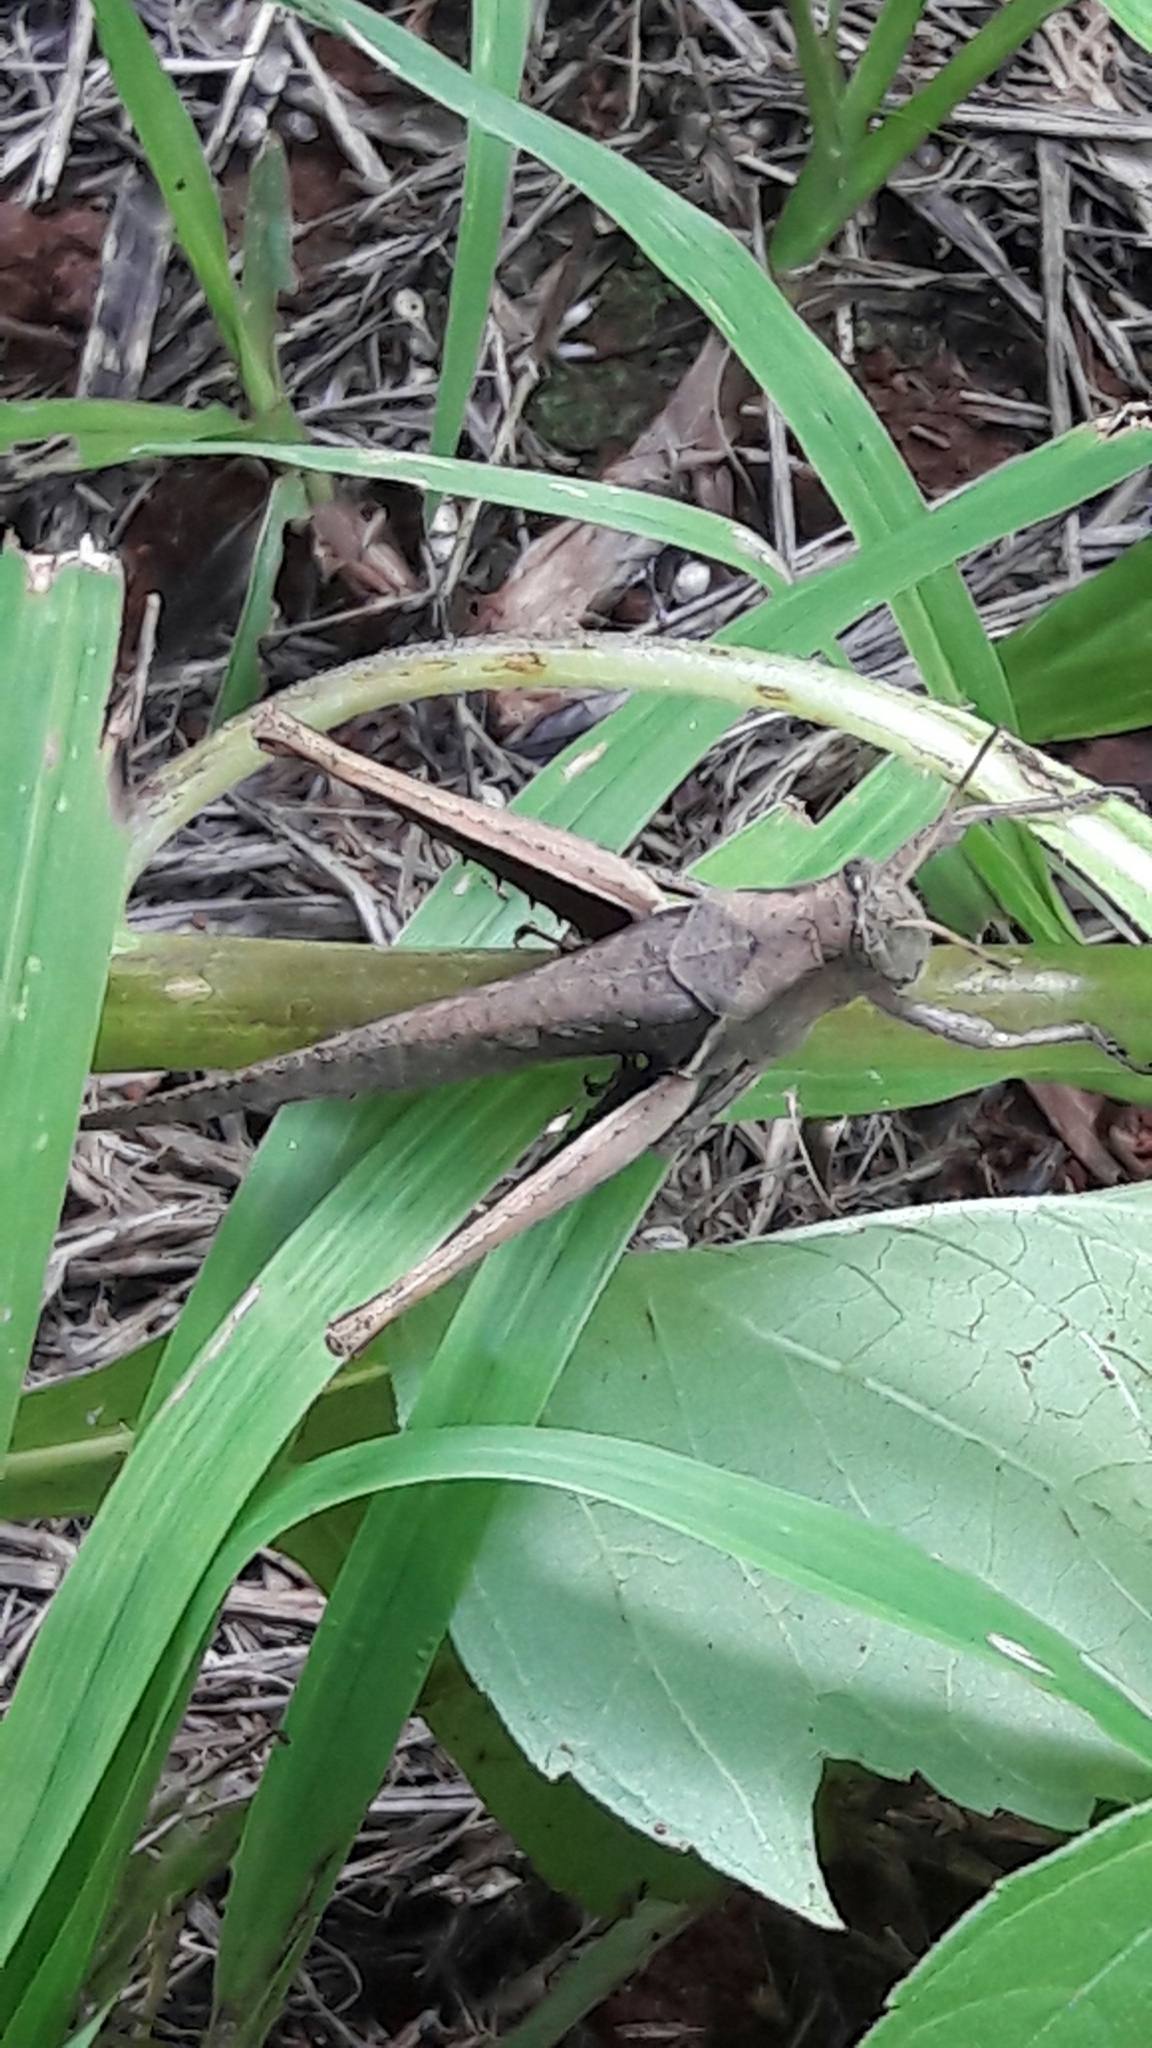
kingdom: Animalia
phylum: Arthropoda
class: Insecta
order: Orthoptera
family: Acrididae
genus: Abracris
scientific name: Abracris flavolineata
